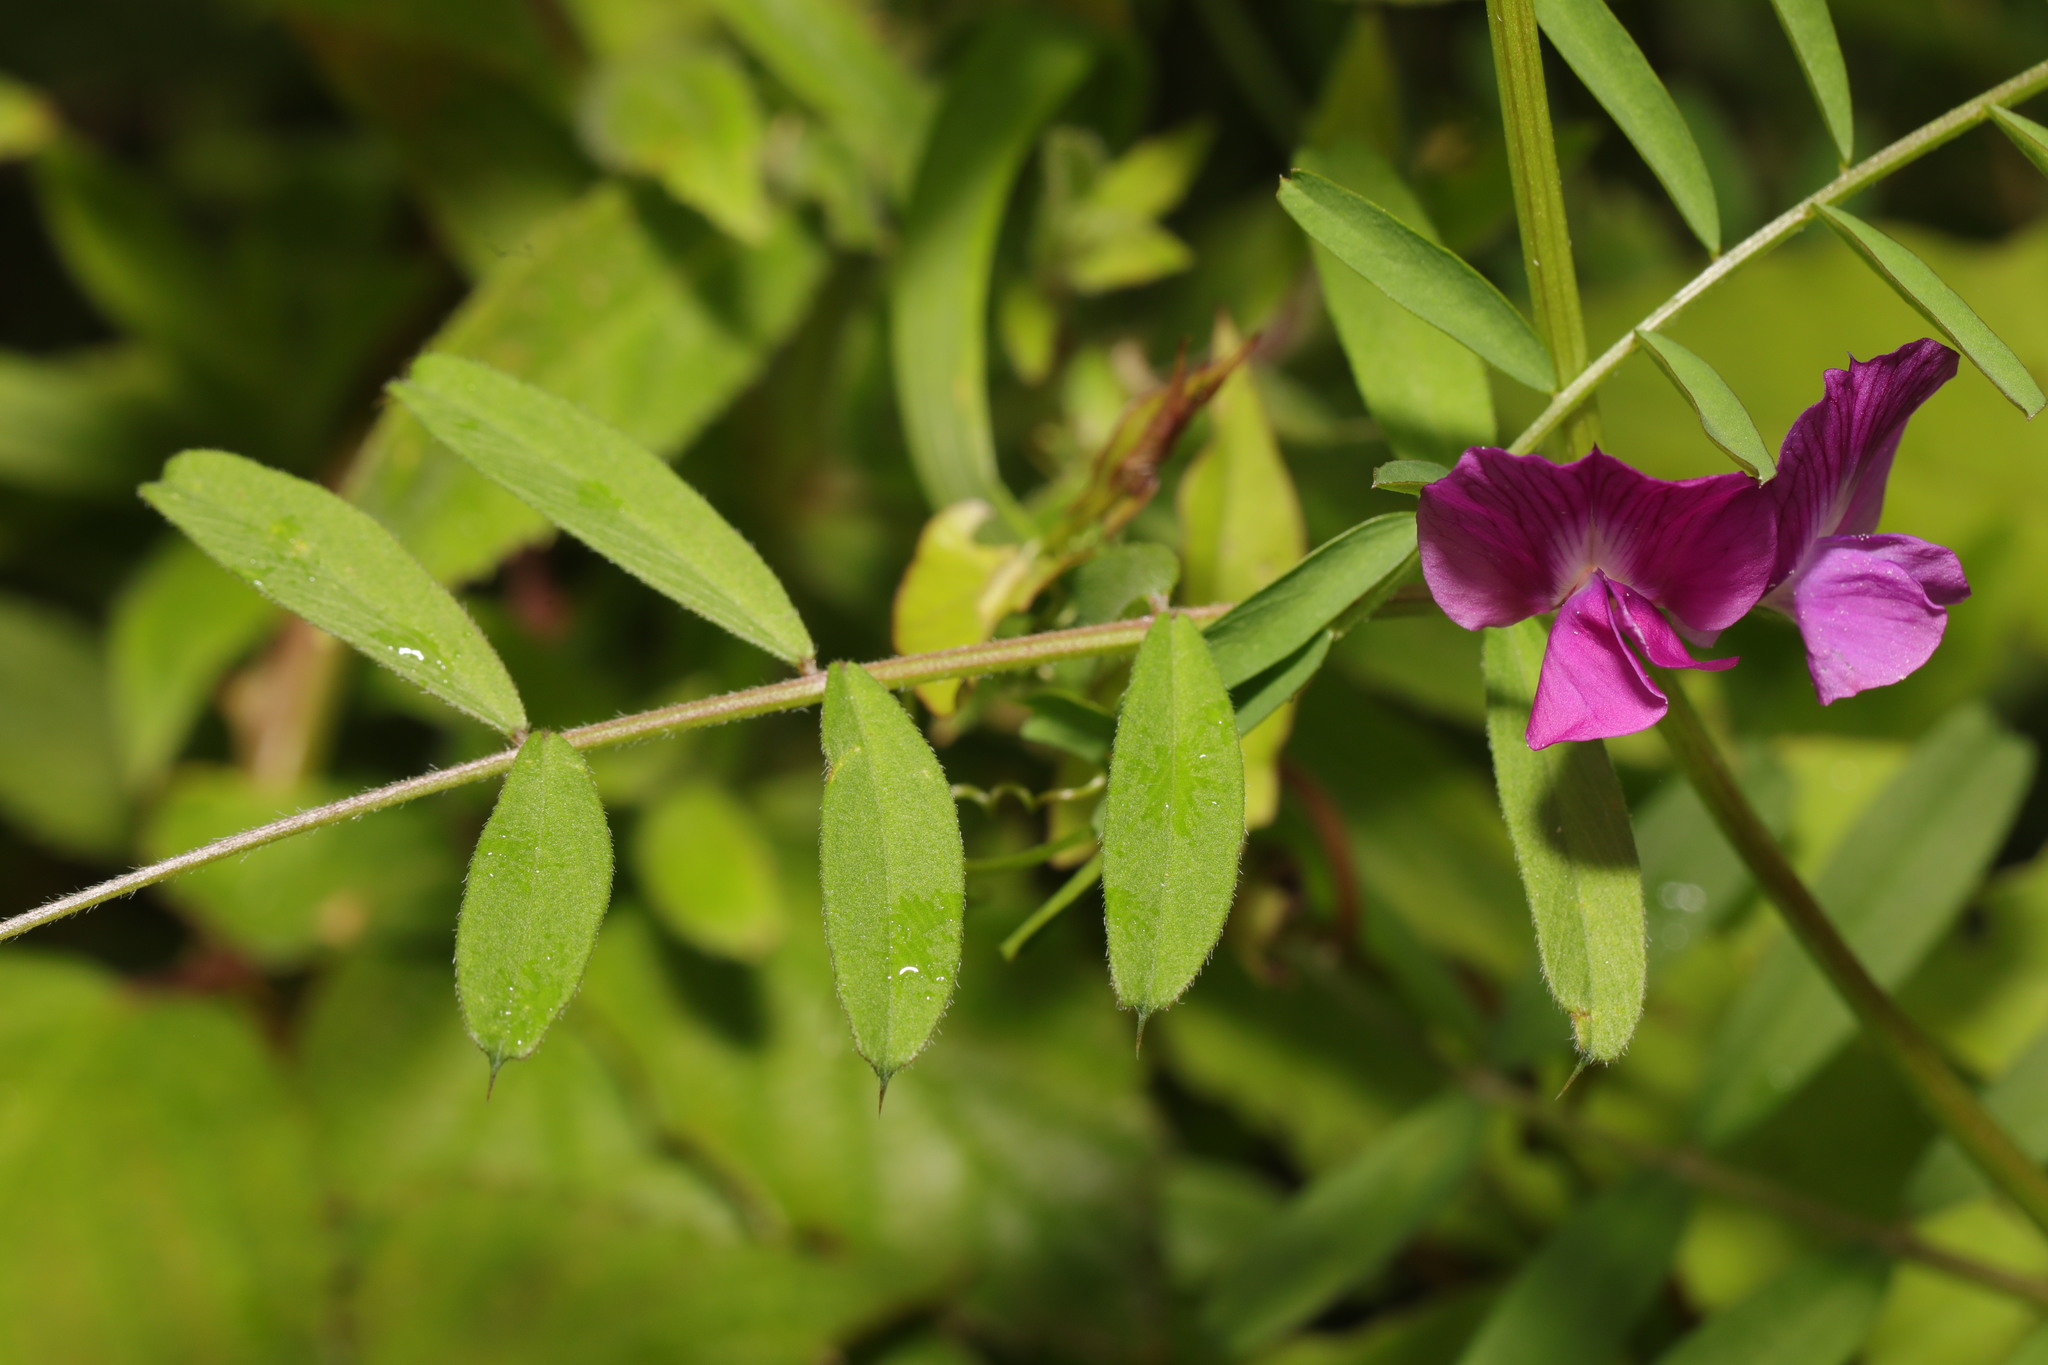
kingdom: Plantae
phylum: Tracheophyta
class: Magnoliopsida
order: Fabales
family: Fabaceae
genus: Vicia
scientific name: Vicia sativa
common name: Garden vetch
